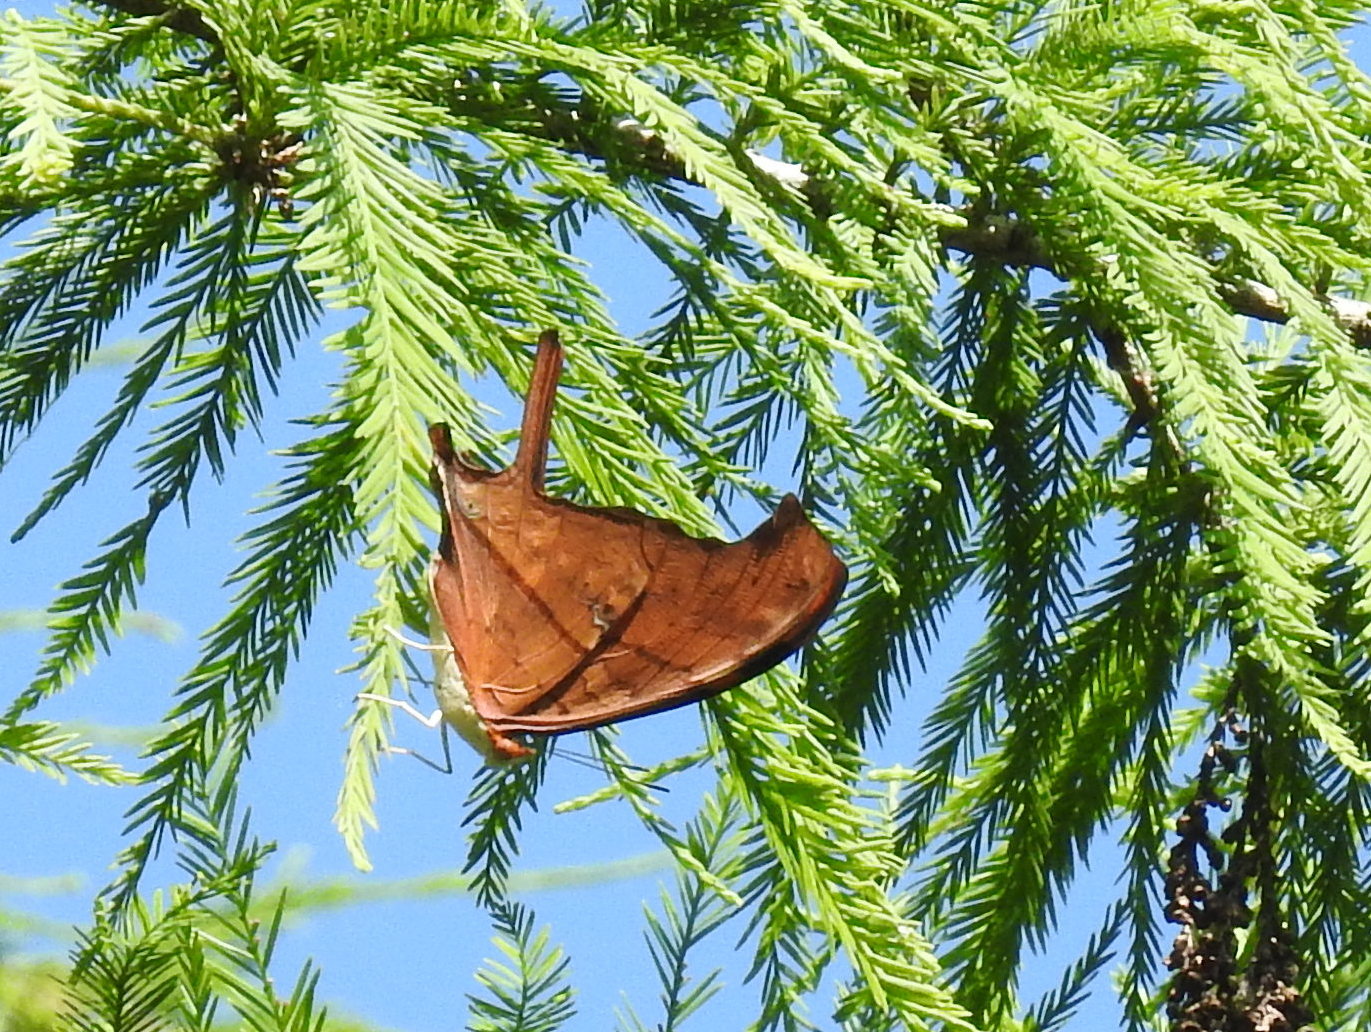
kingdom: Animalia
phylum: Arthropoda
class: Insecta
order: Lepidoptera
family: Nymphalidae
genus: Marpesia
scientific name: Marpesia petreus
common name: Red dagger wing
